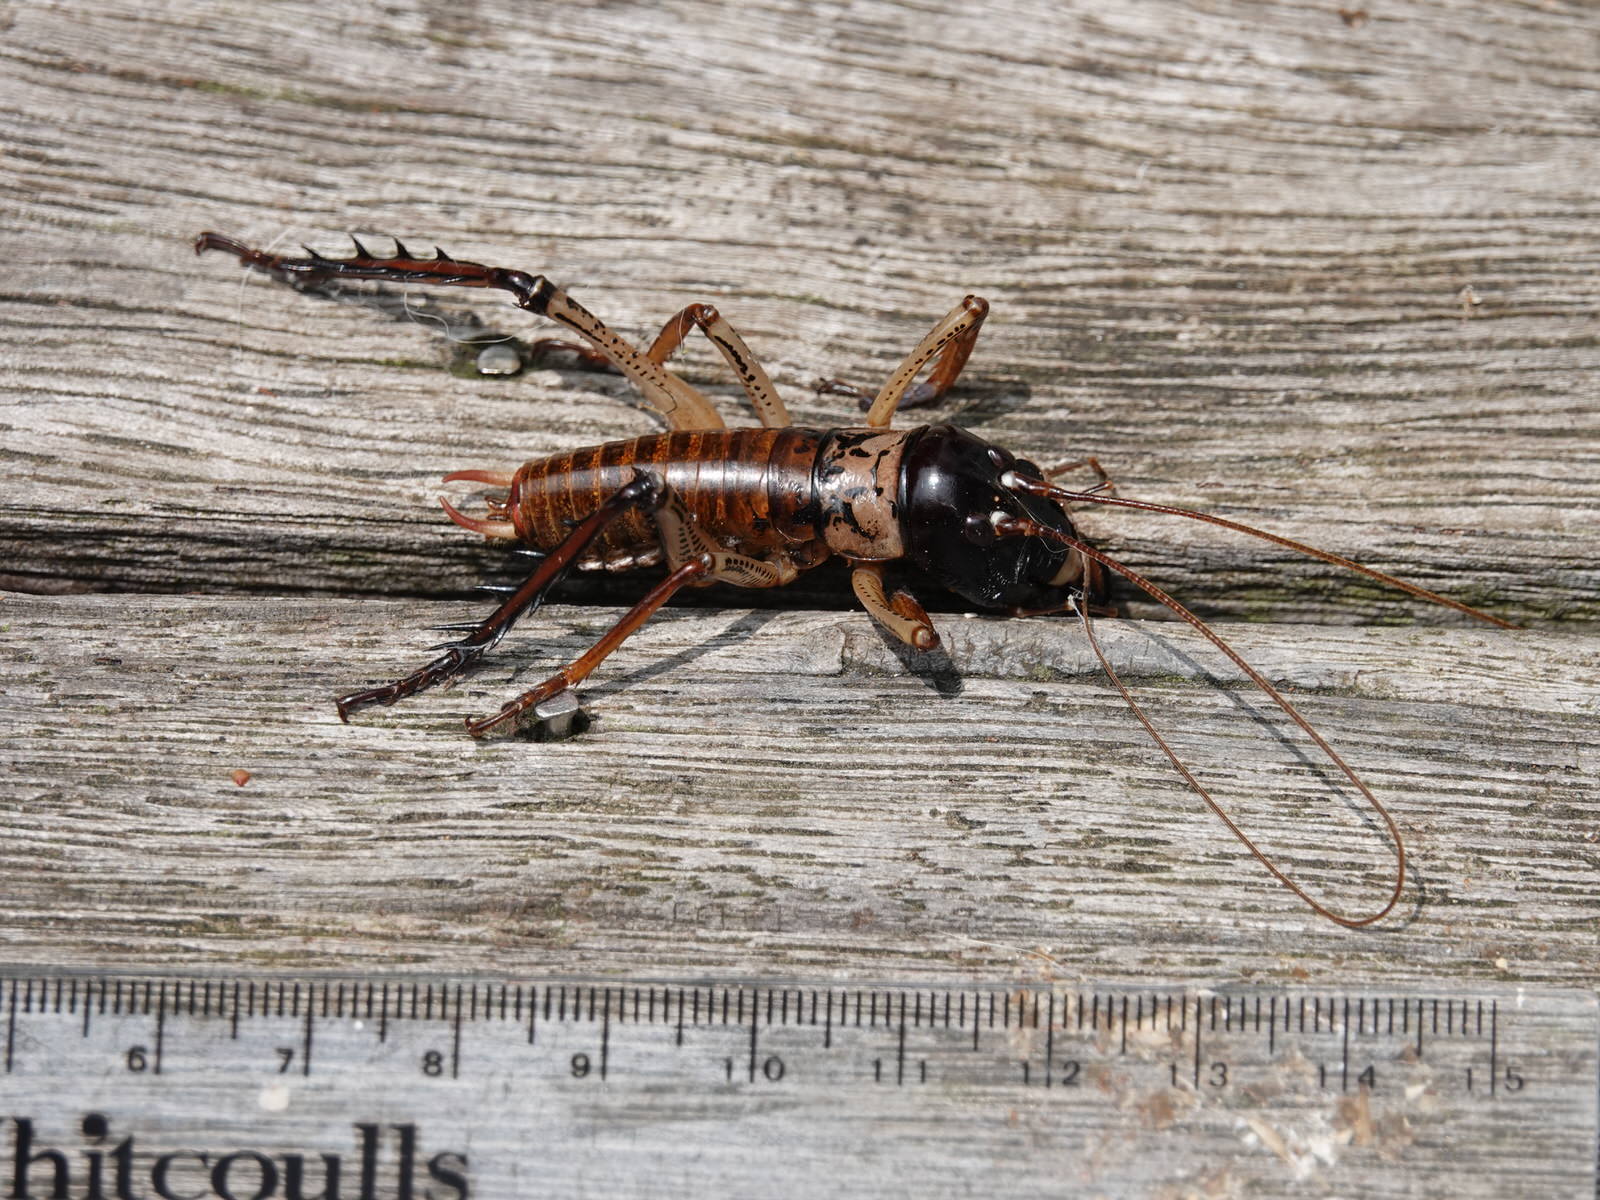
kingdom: Animalia
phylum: Arthropoda
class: Insecta
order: Orthoptera
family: Anostostomatidae
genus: Hemideina
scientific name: Hemideina thoracica
